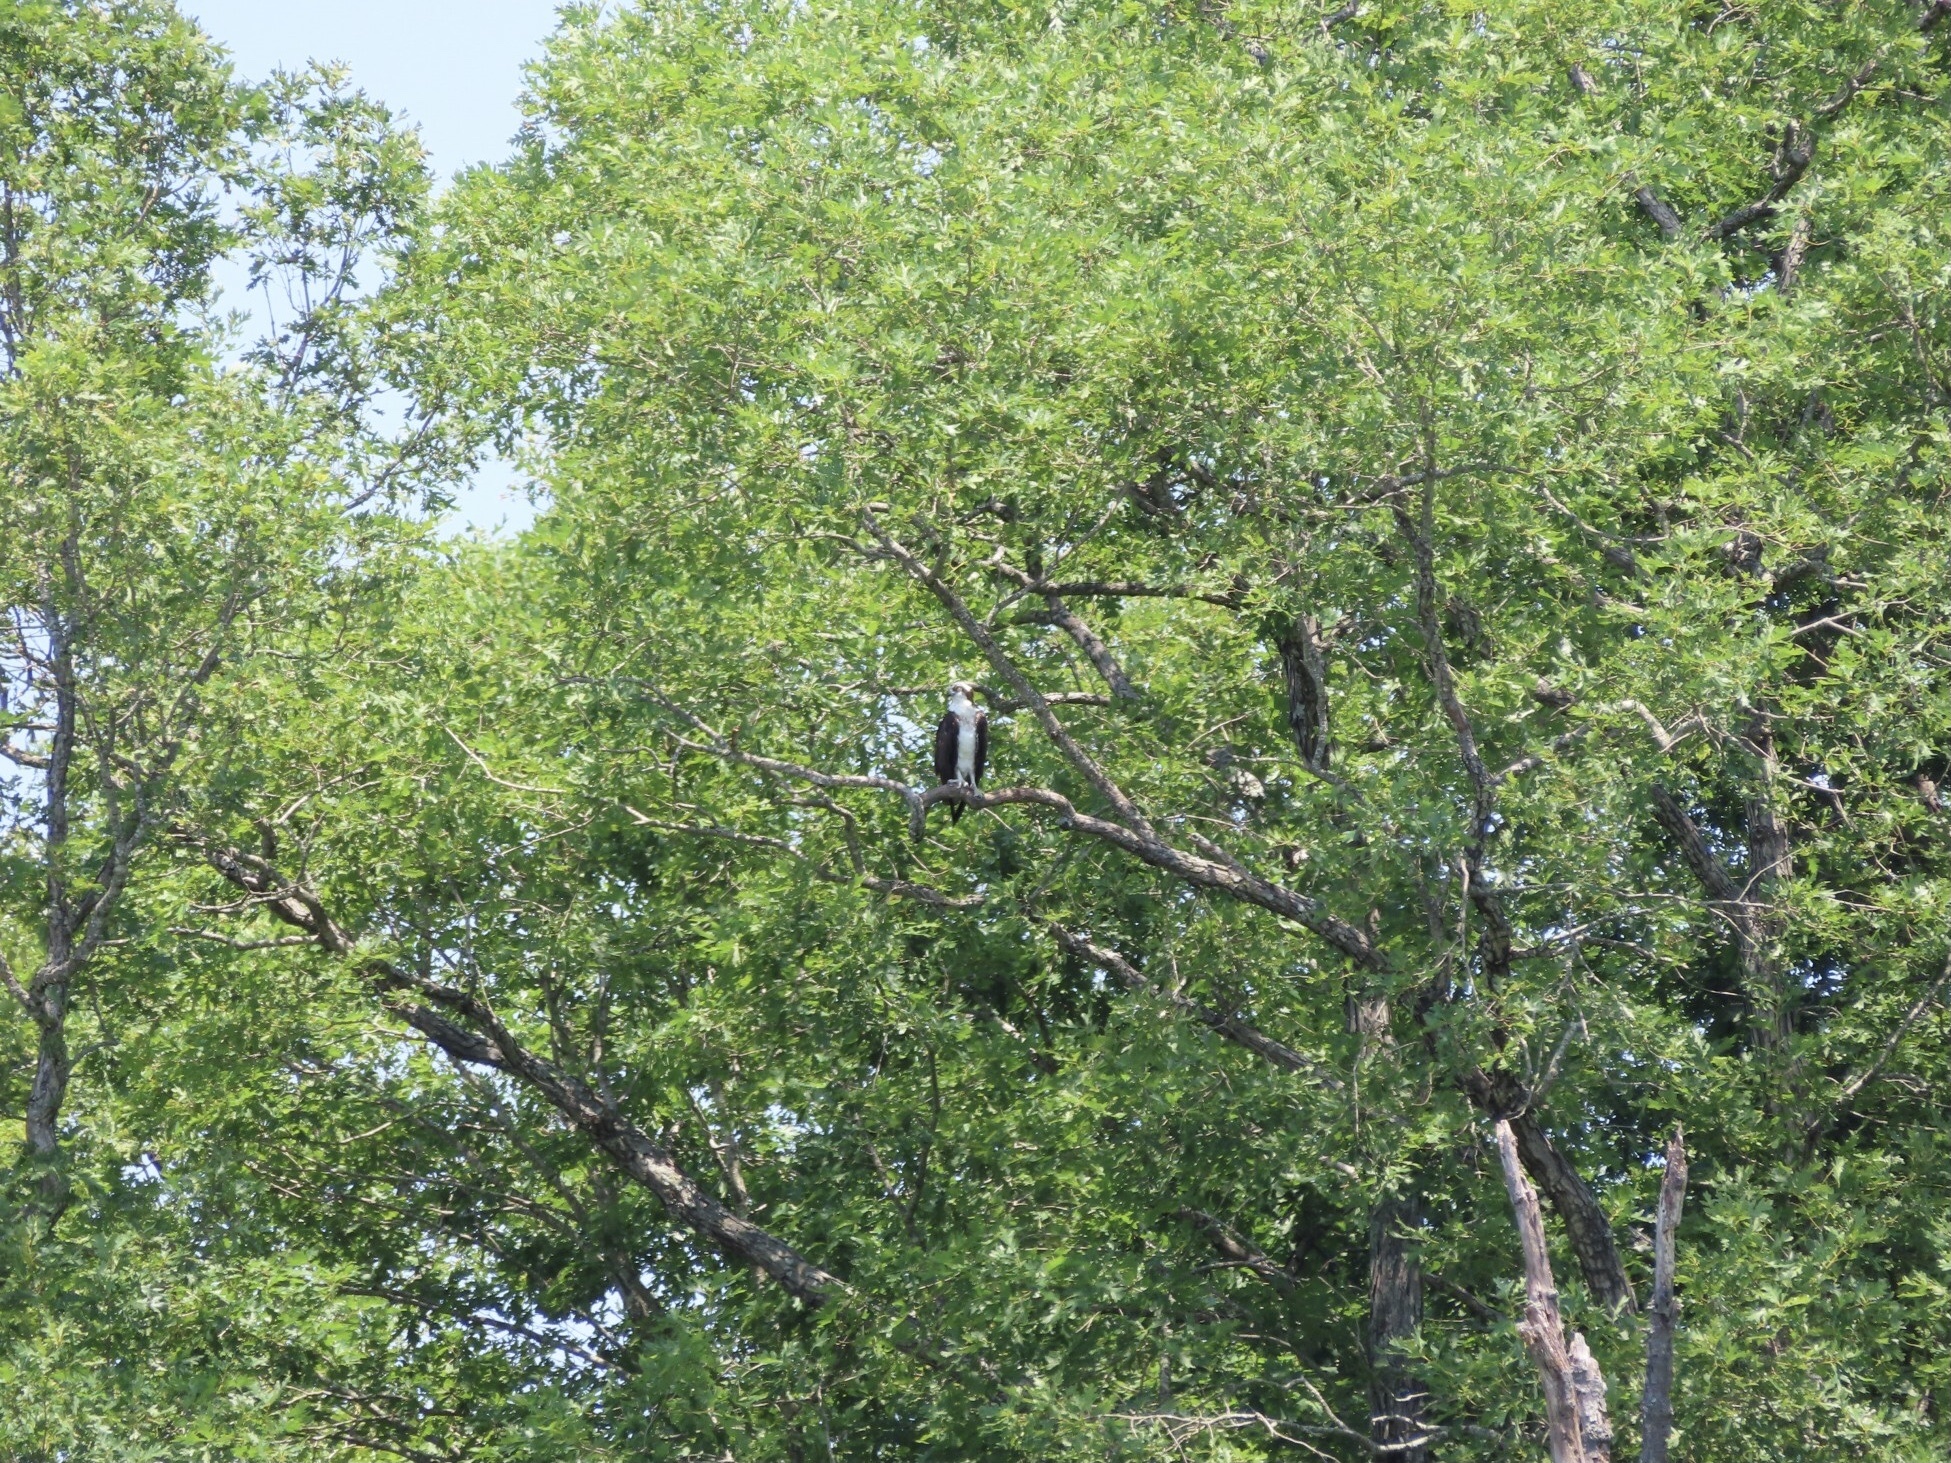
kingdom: Animalia
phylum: Chordata
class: Aves
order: Accipitriformes
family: Pandionidae
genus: Pandion
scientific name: Pandion haliaetus
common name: Osprey
